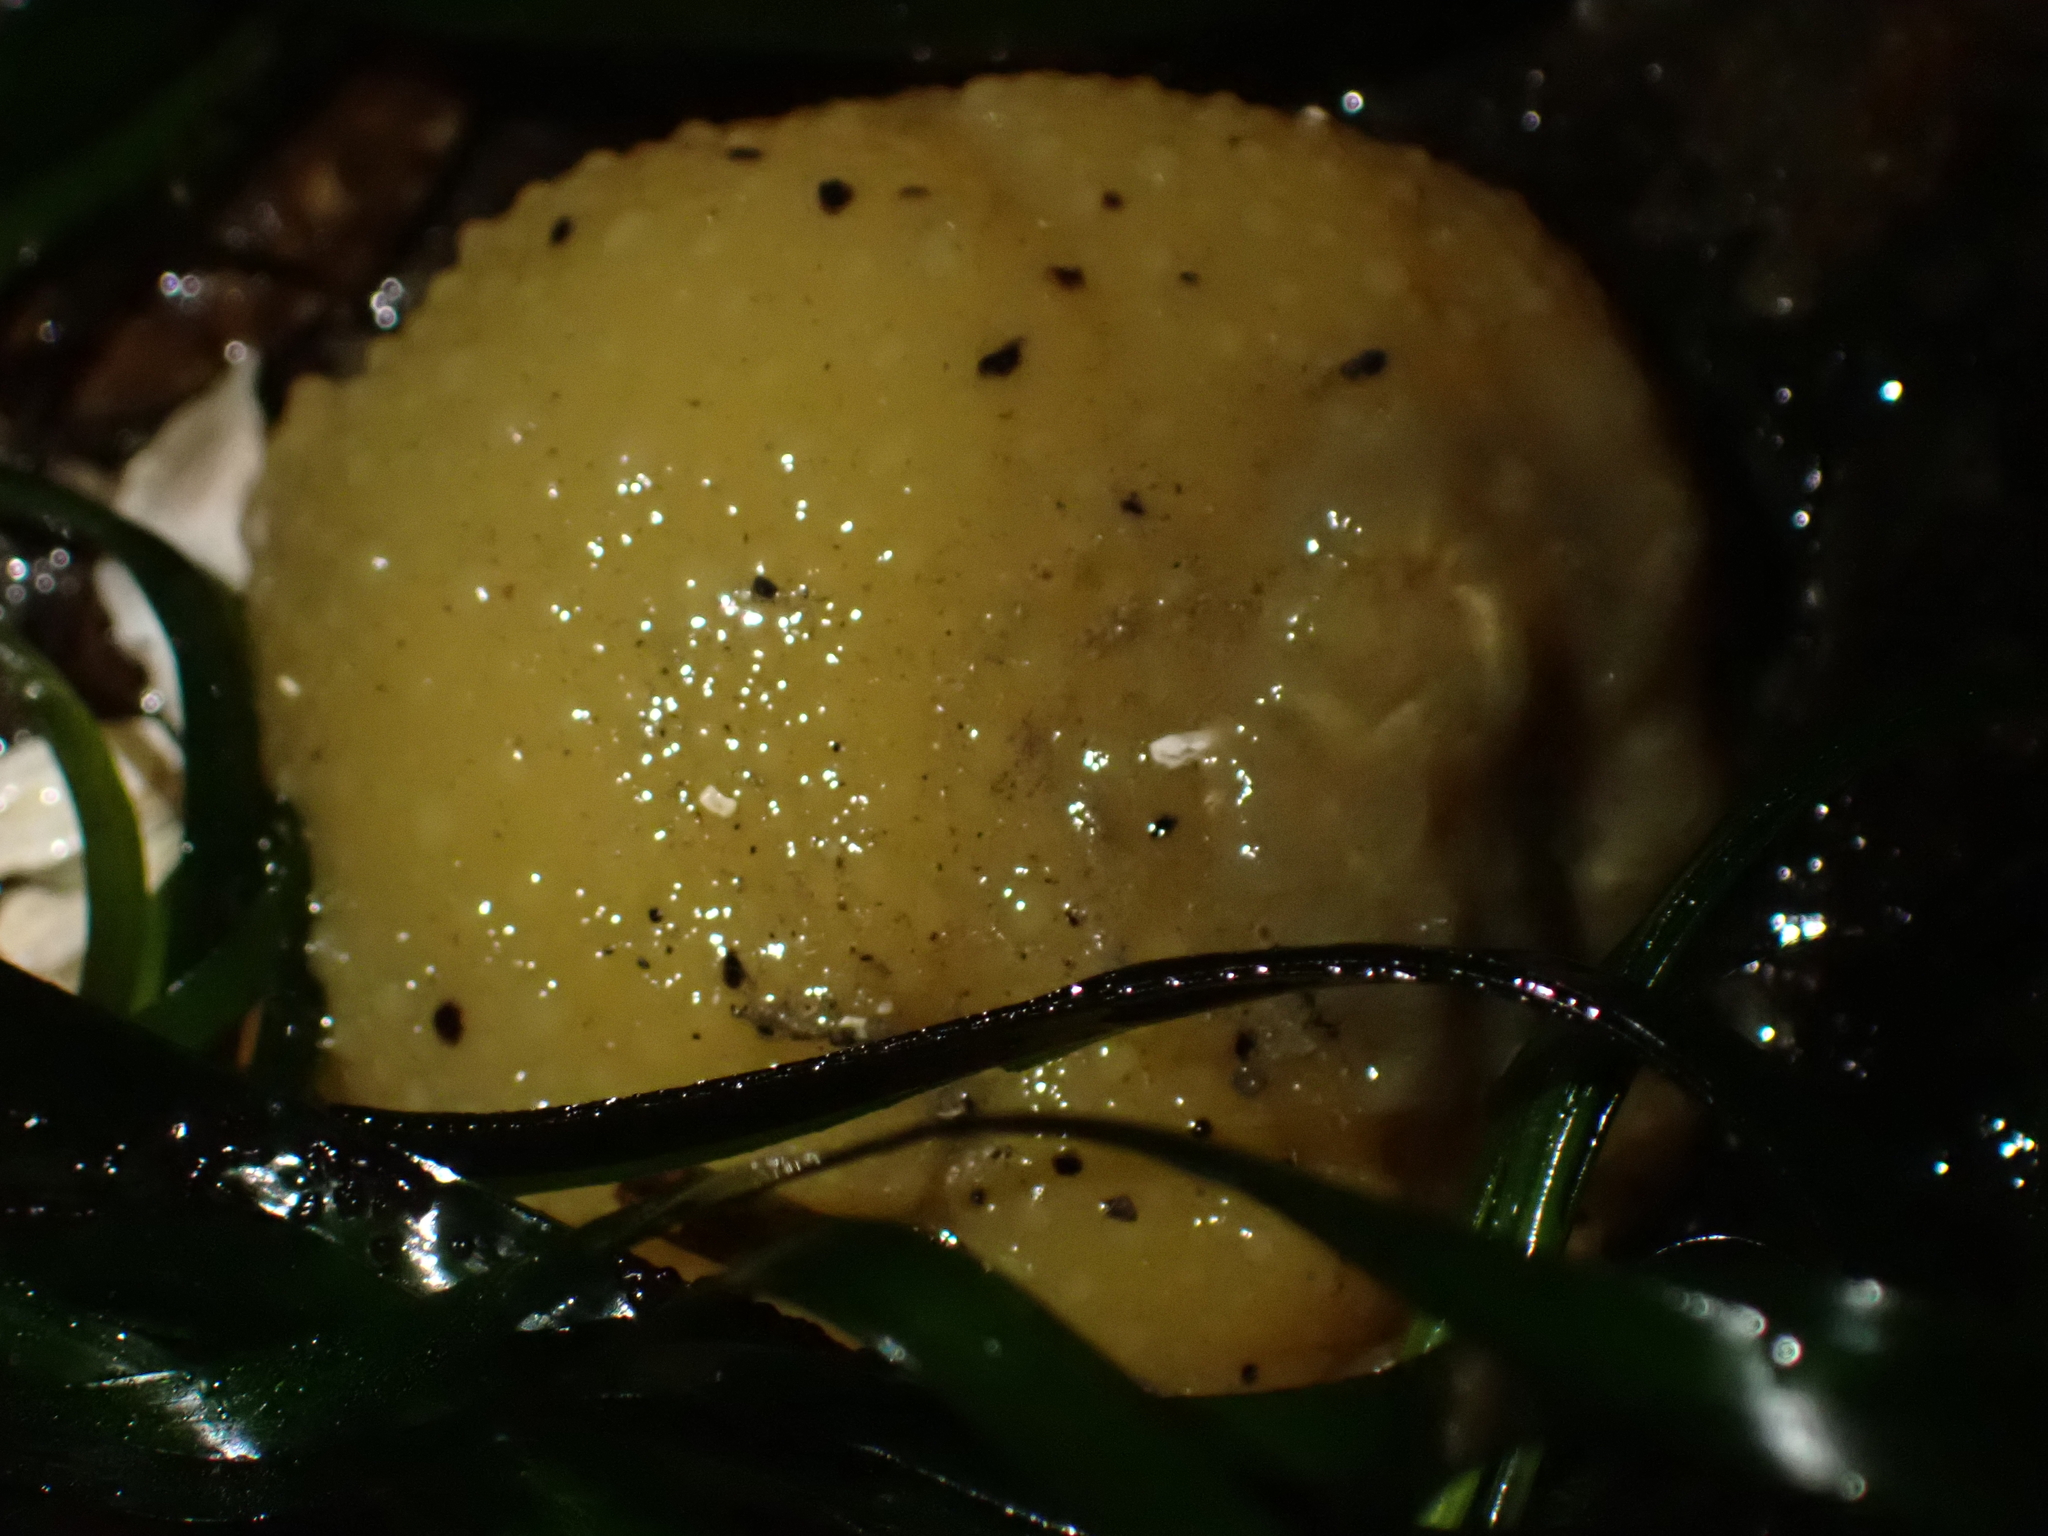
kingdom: Animalia
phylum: Mollusca
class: Gastropoda
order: Nudibranchia
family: Dorididae
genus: Doris
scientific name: Doris montereyensis
